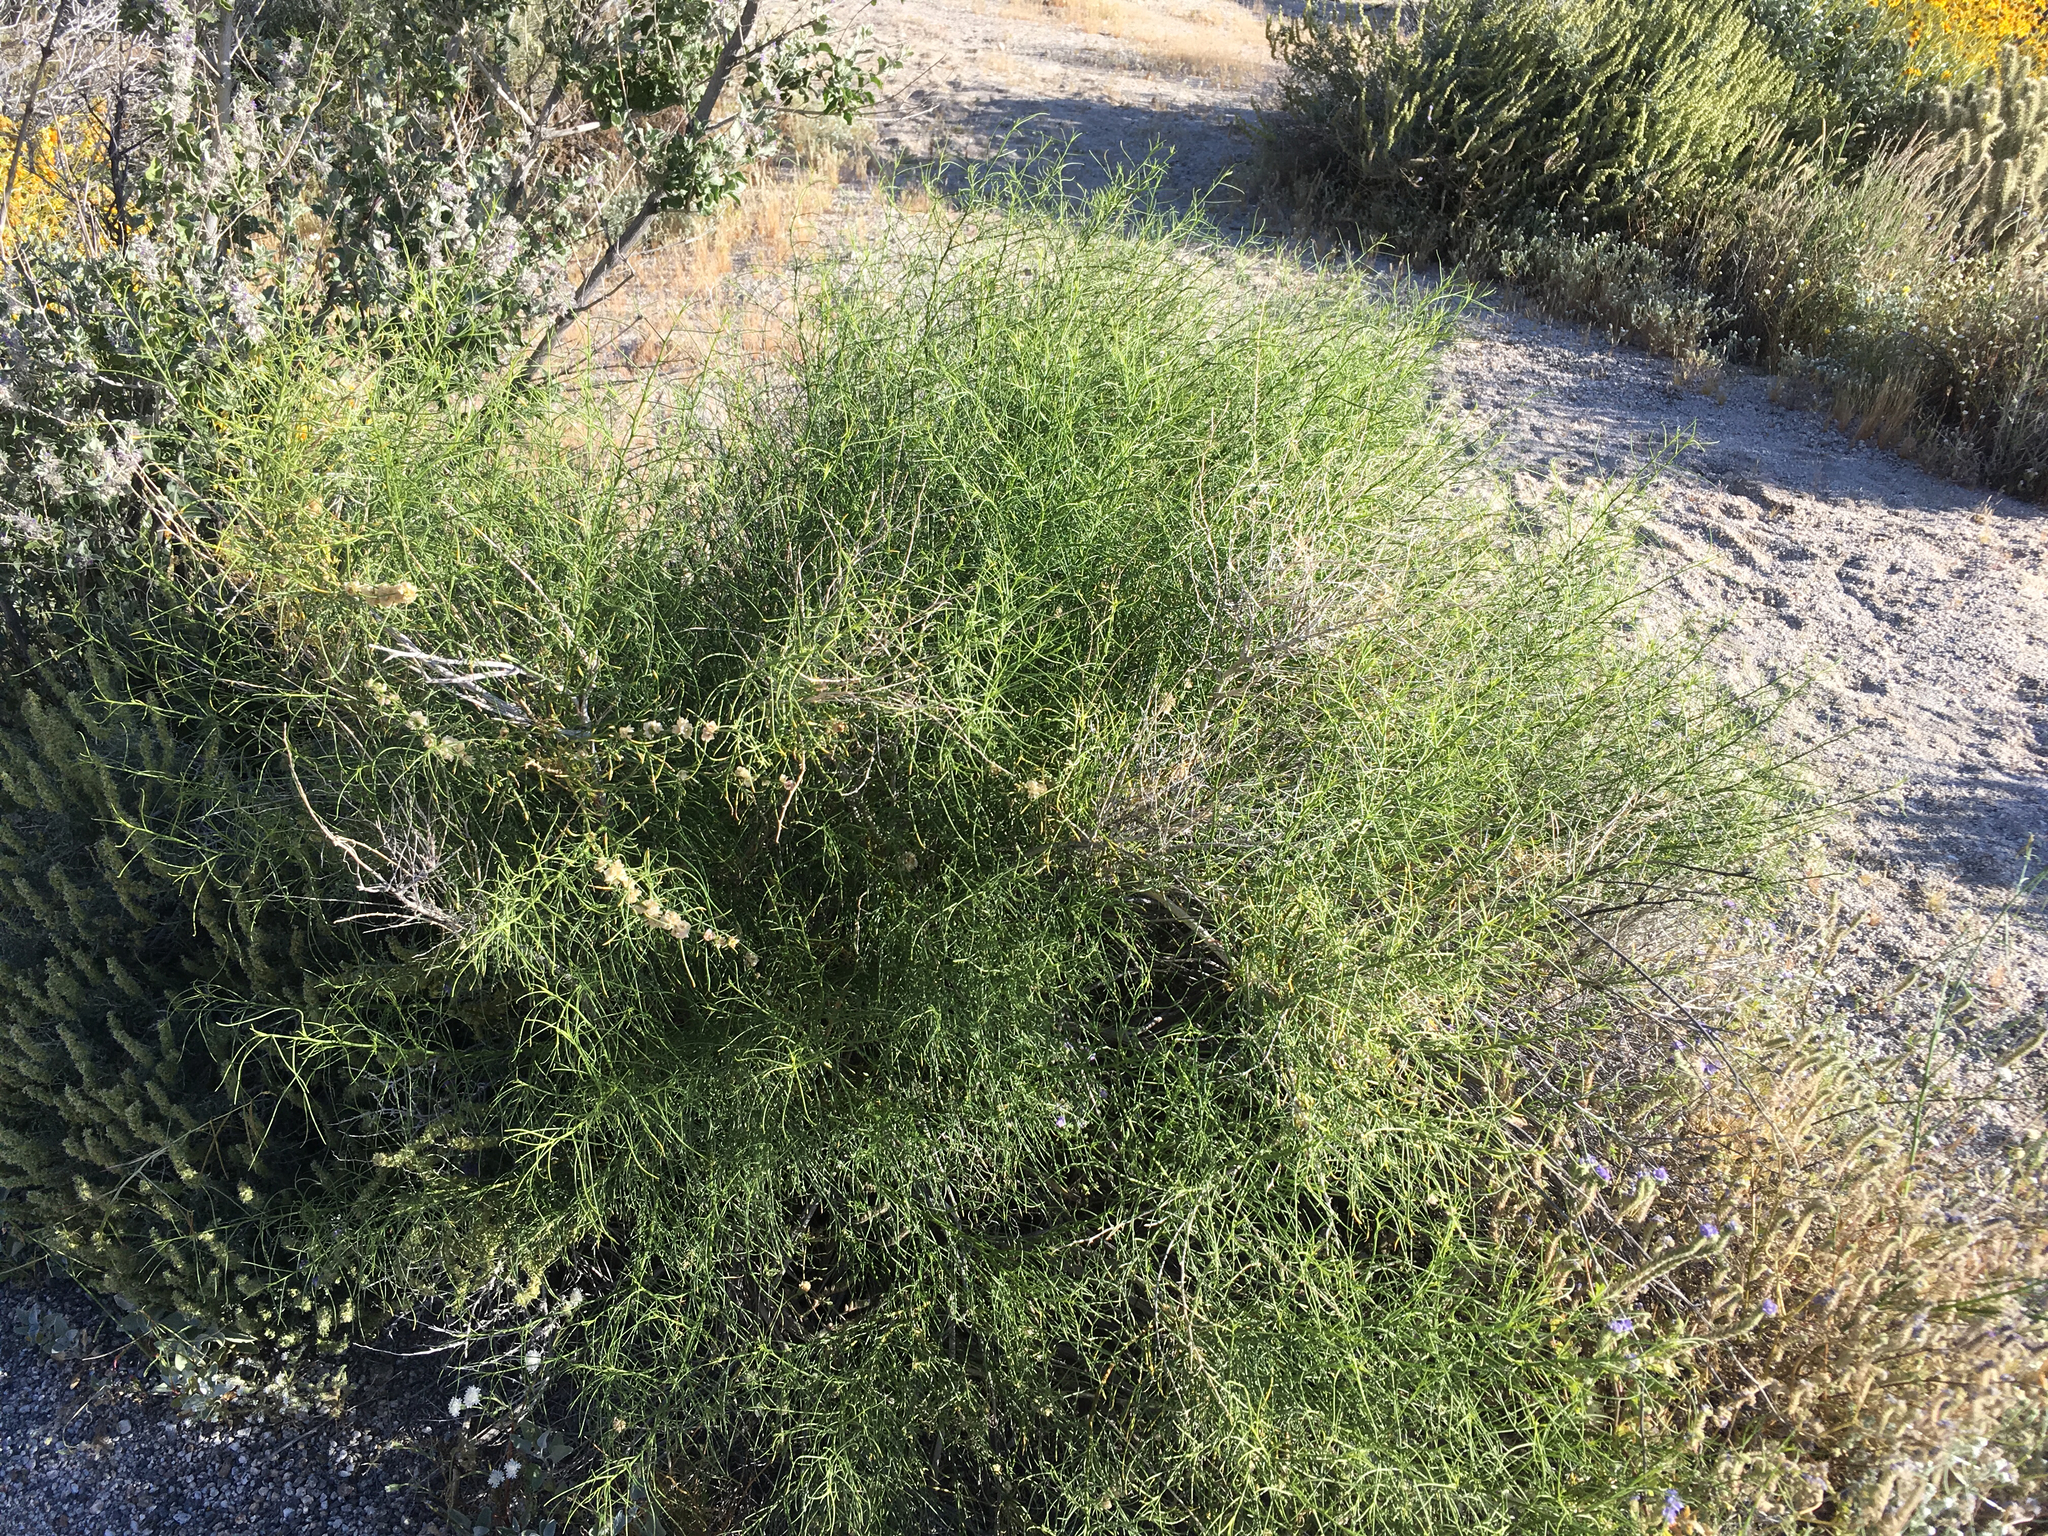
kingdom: Plantae
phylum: Tracheophyta
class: Magnoliopsida
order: Asterales
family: Asteraceae
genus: Ambrosia
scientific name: Ambrosia salsola
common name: Burrobrush
